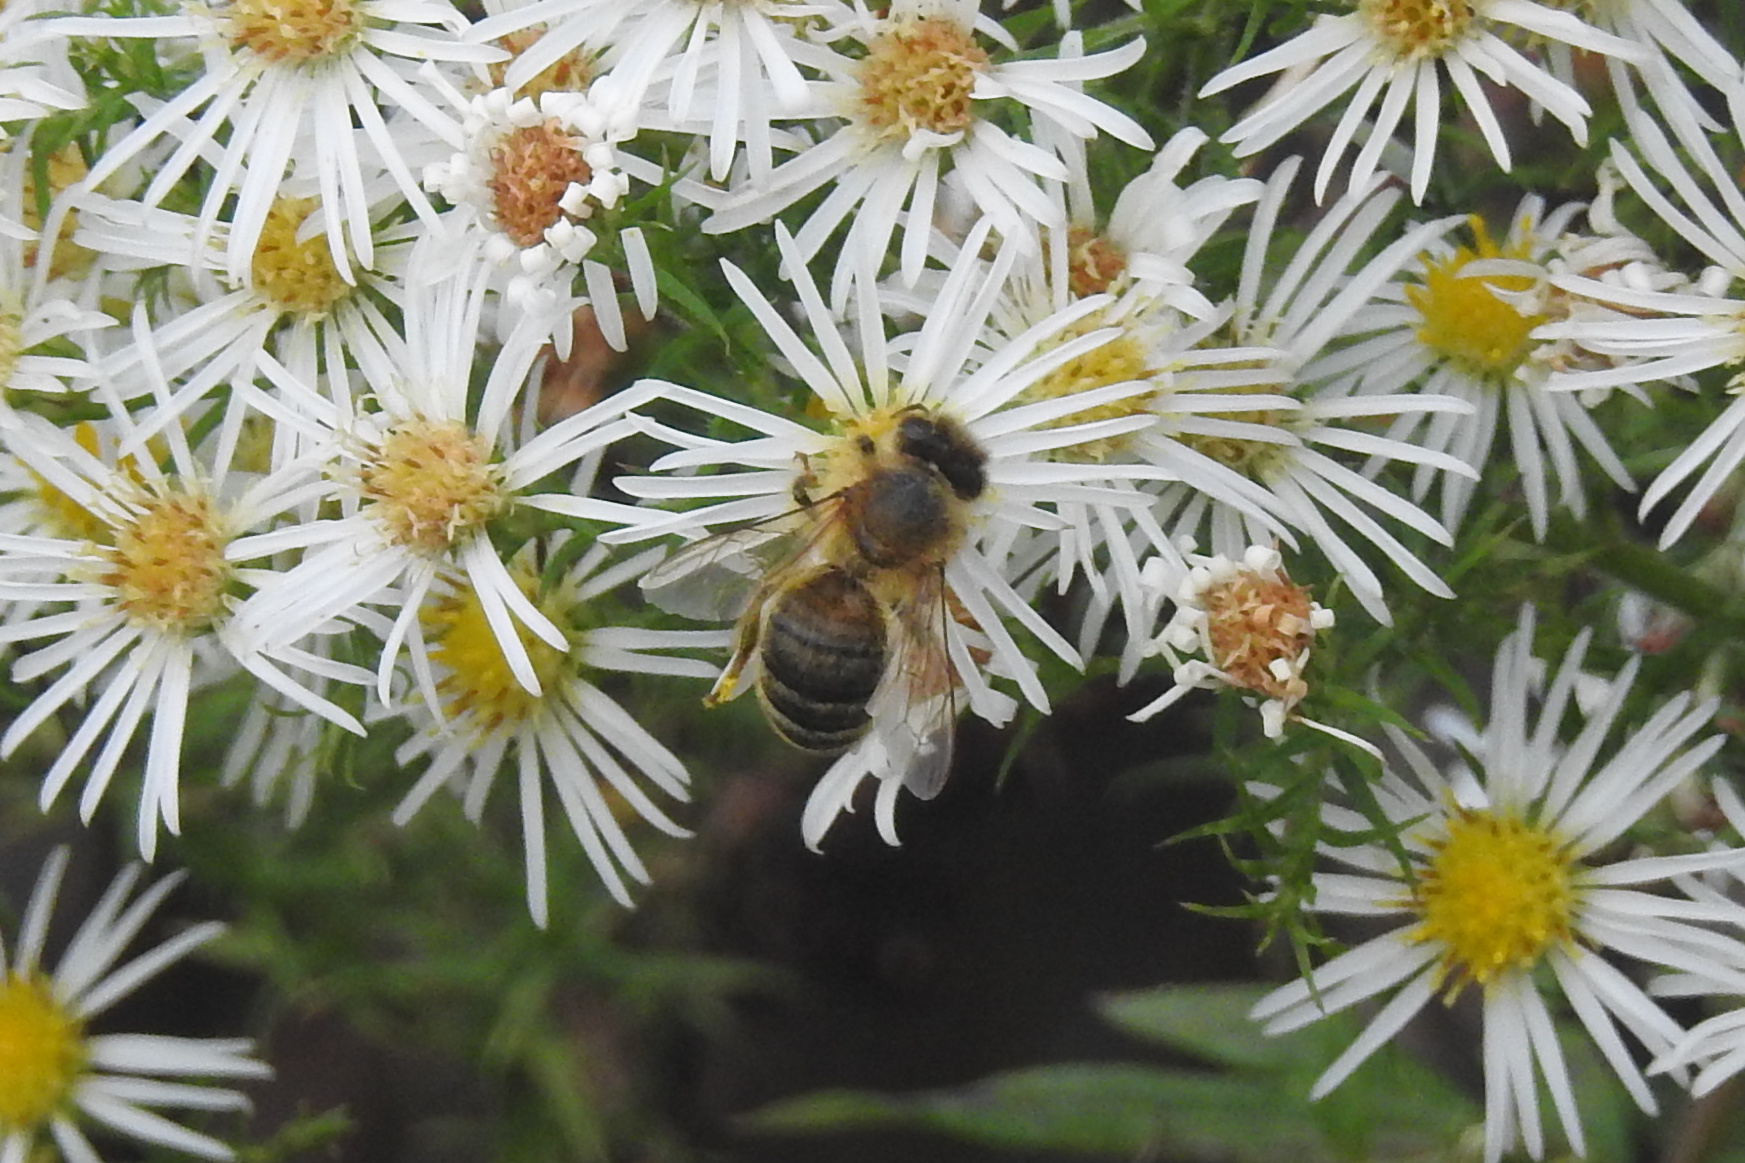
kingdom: Animalia
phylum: Arthropoda
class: Insecta
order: Hymenoptera
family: Apidae
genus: Apis
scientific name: Apis mellifera
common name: Honey bee
